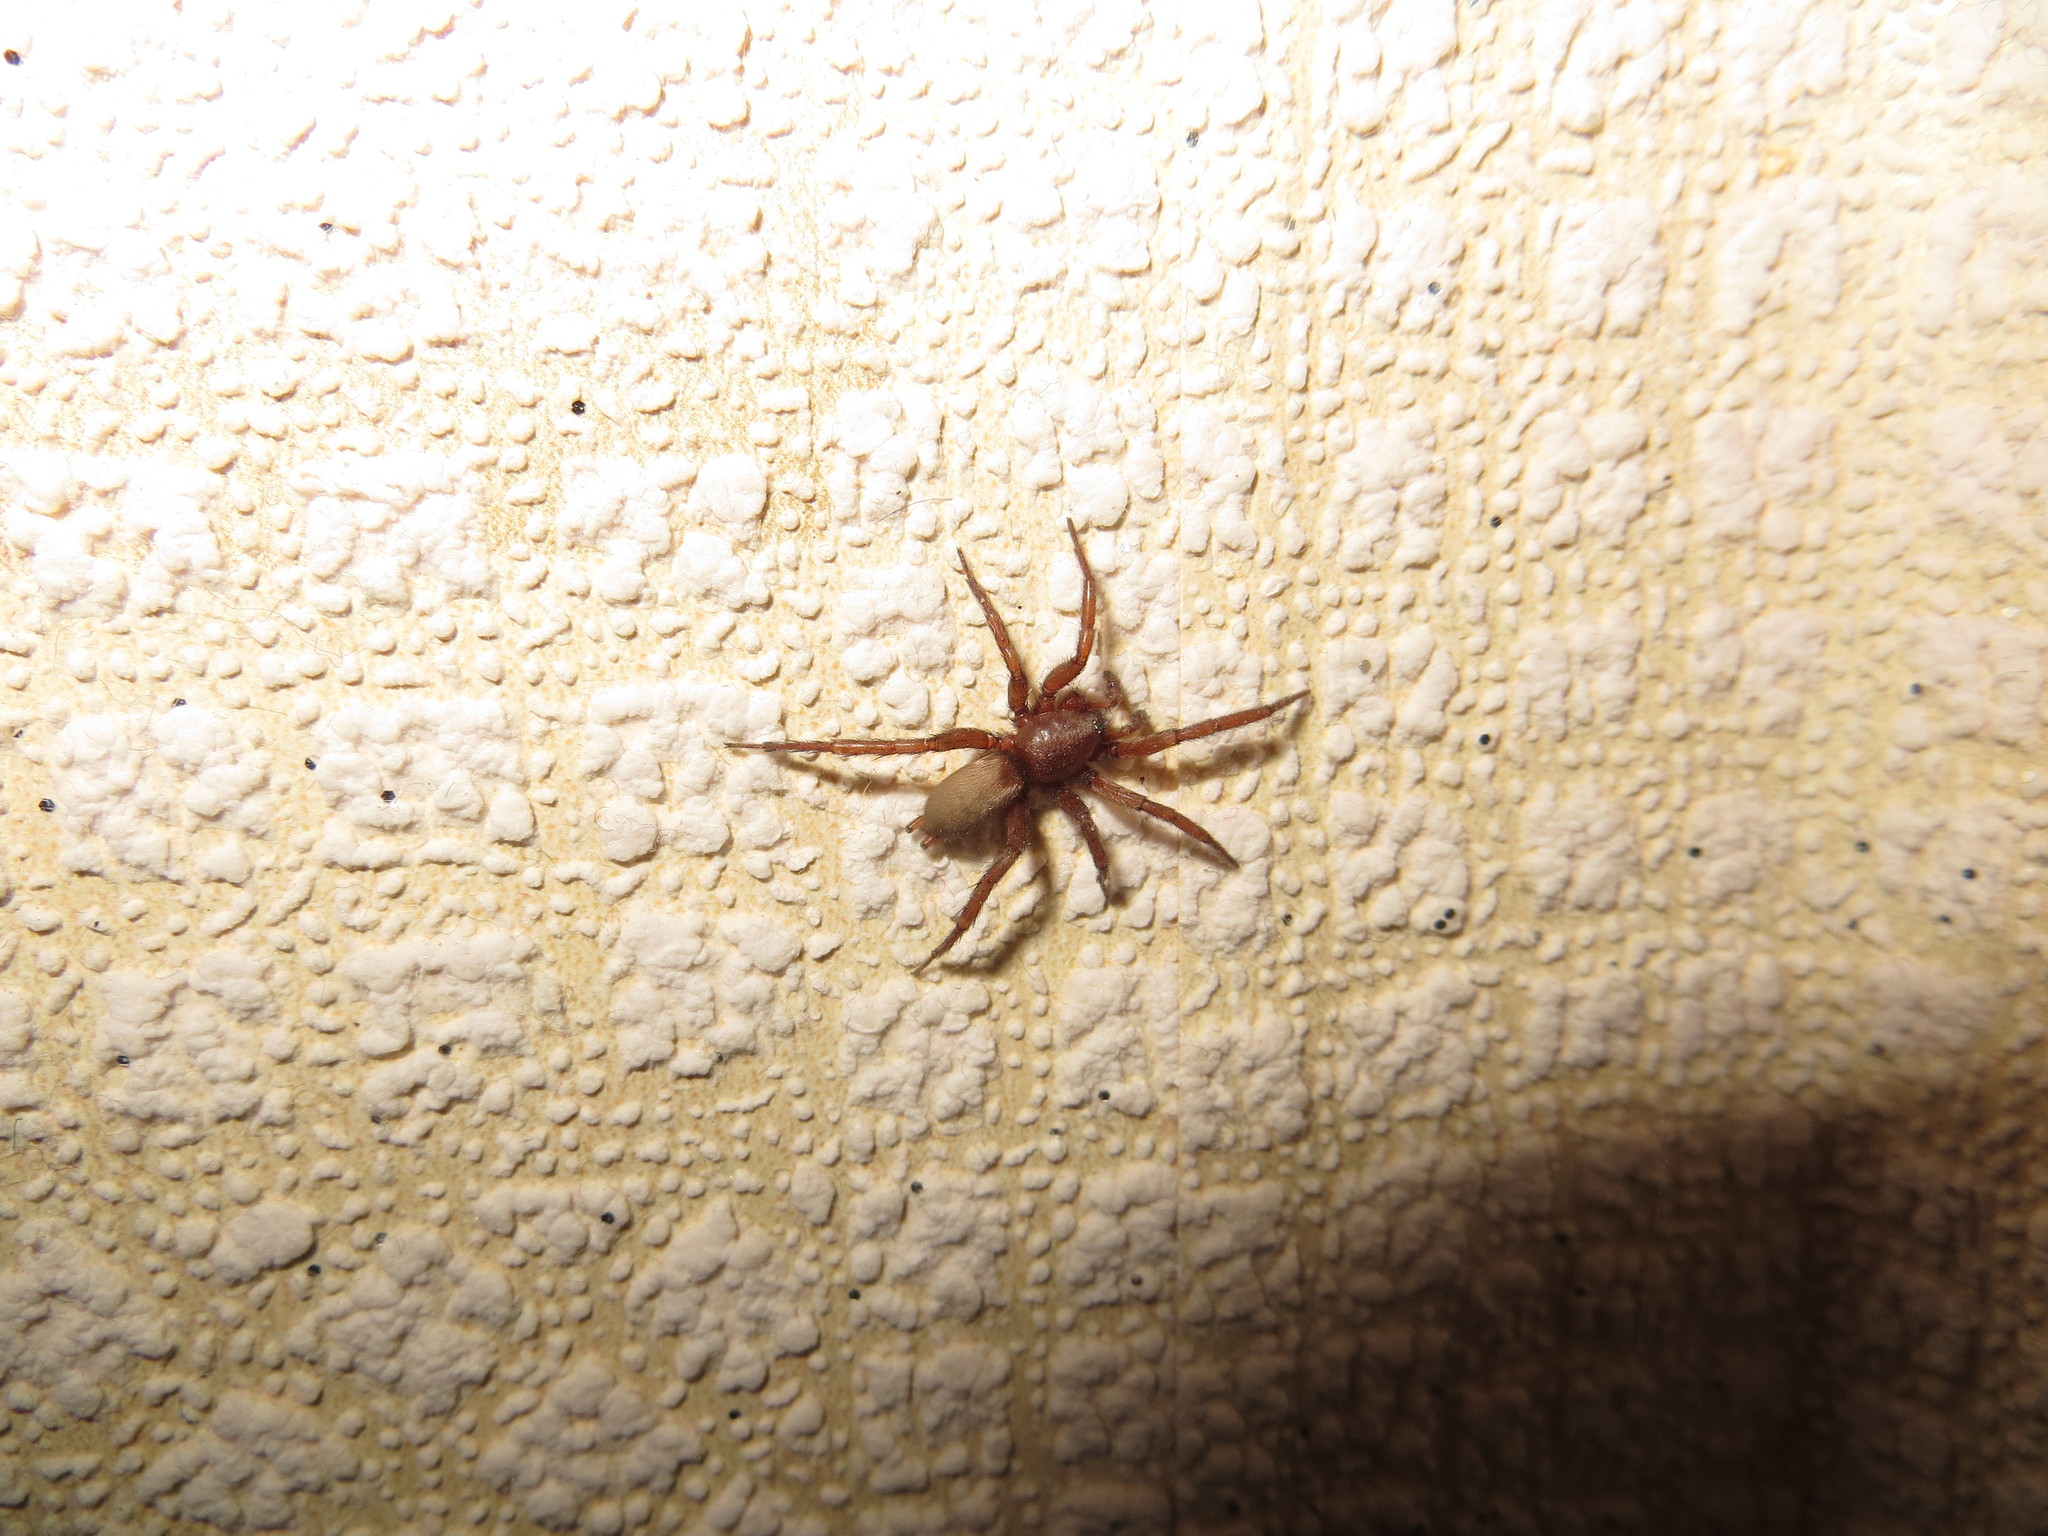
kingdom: Animalia
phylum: Arthropoda
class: Arachnida
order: Araneae
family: Gnaphosidae
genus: Urozelotes
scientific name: Urozelotes rusticus
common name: Spider
